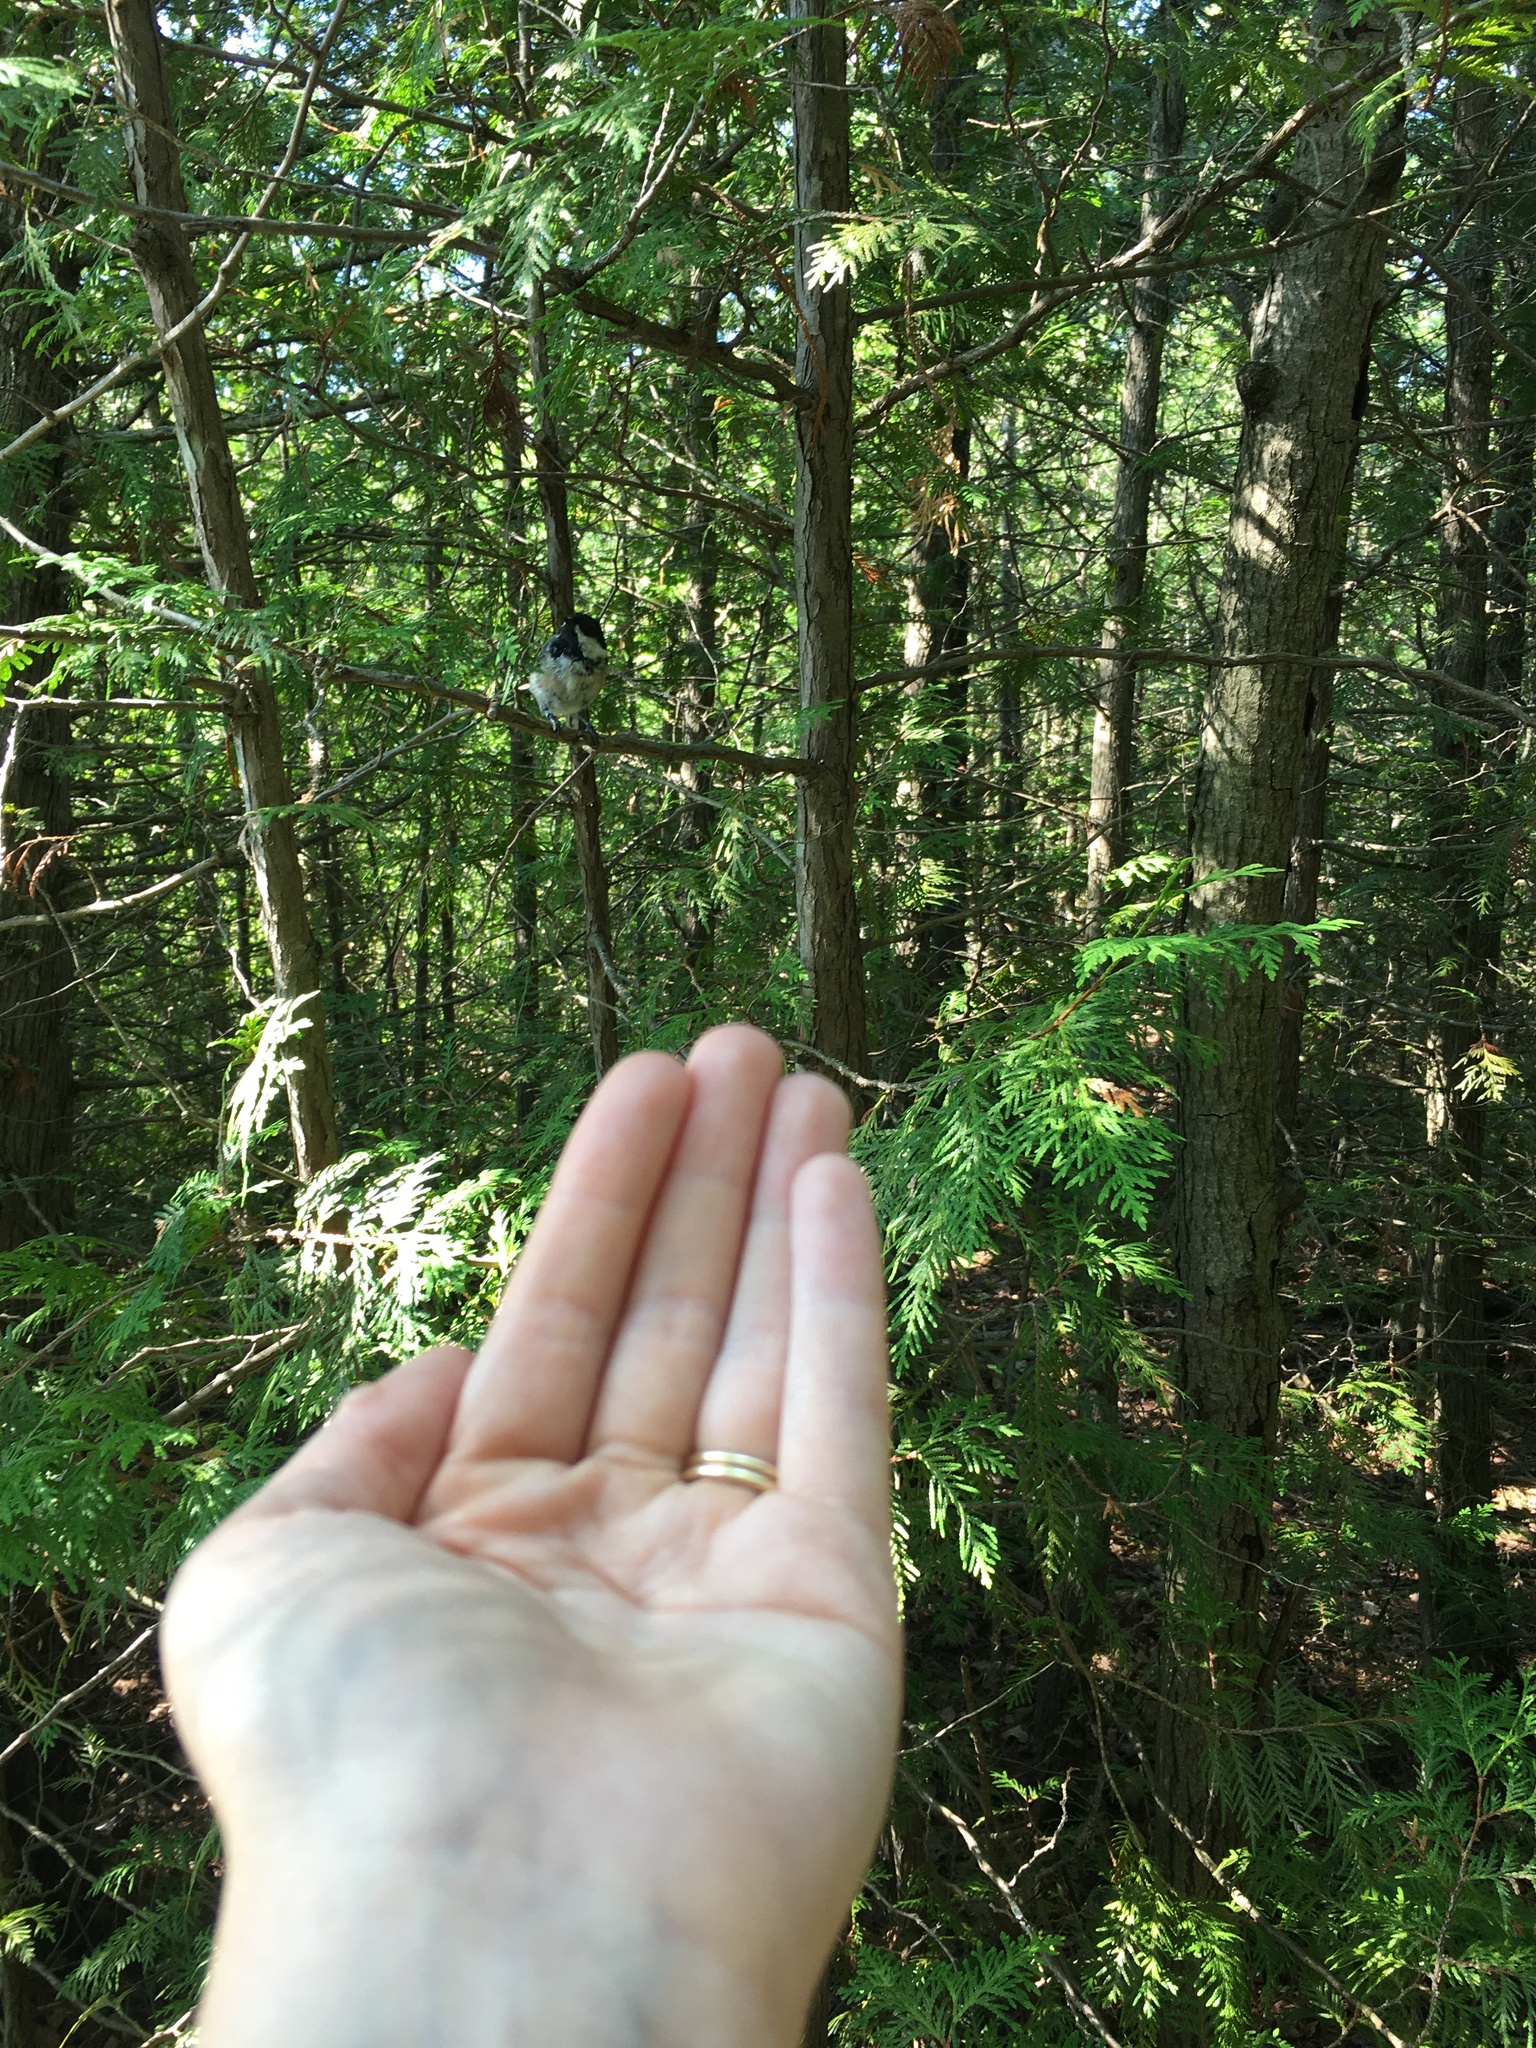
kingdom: Animalia
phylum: Chordata
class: Aves
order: Passeriformes
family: Paridae
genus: Poecile
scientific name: Poecile atricapillus
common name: Black-capped chickadee
